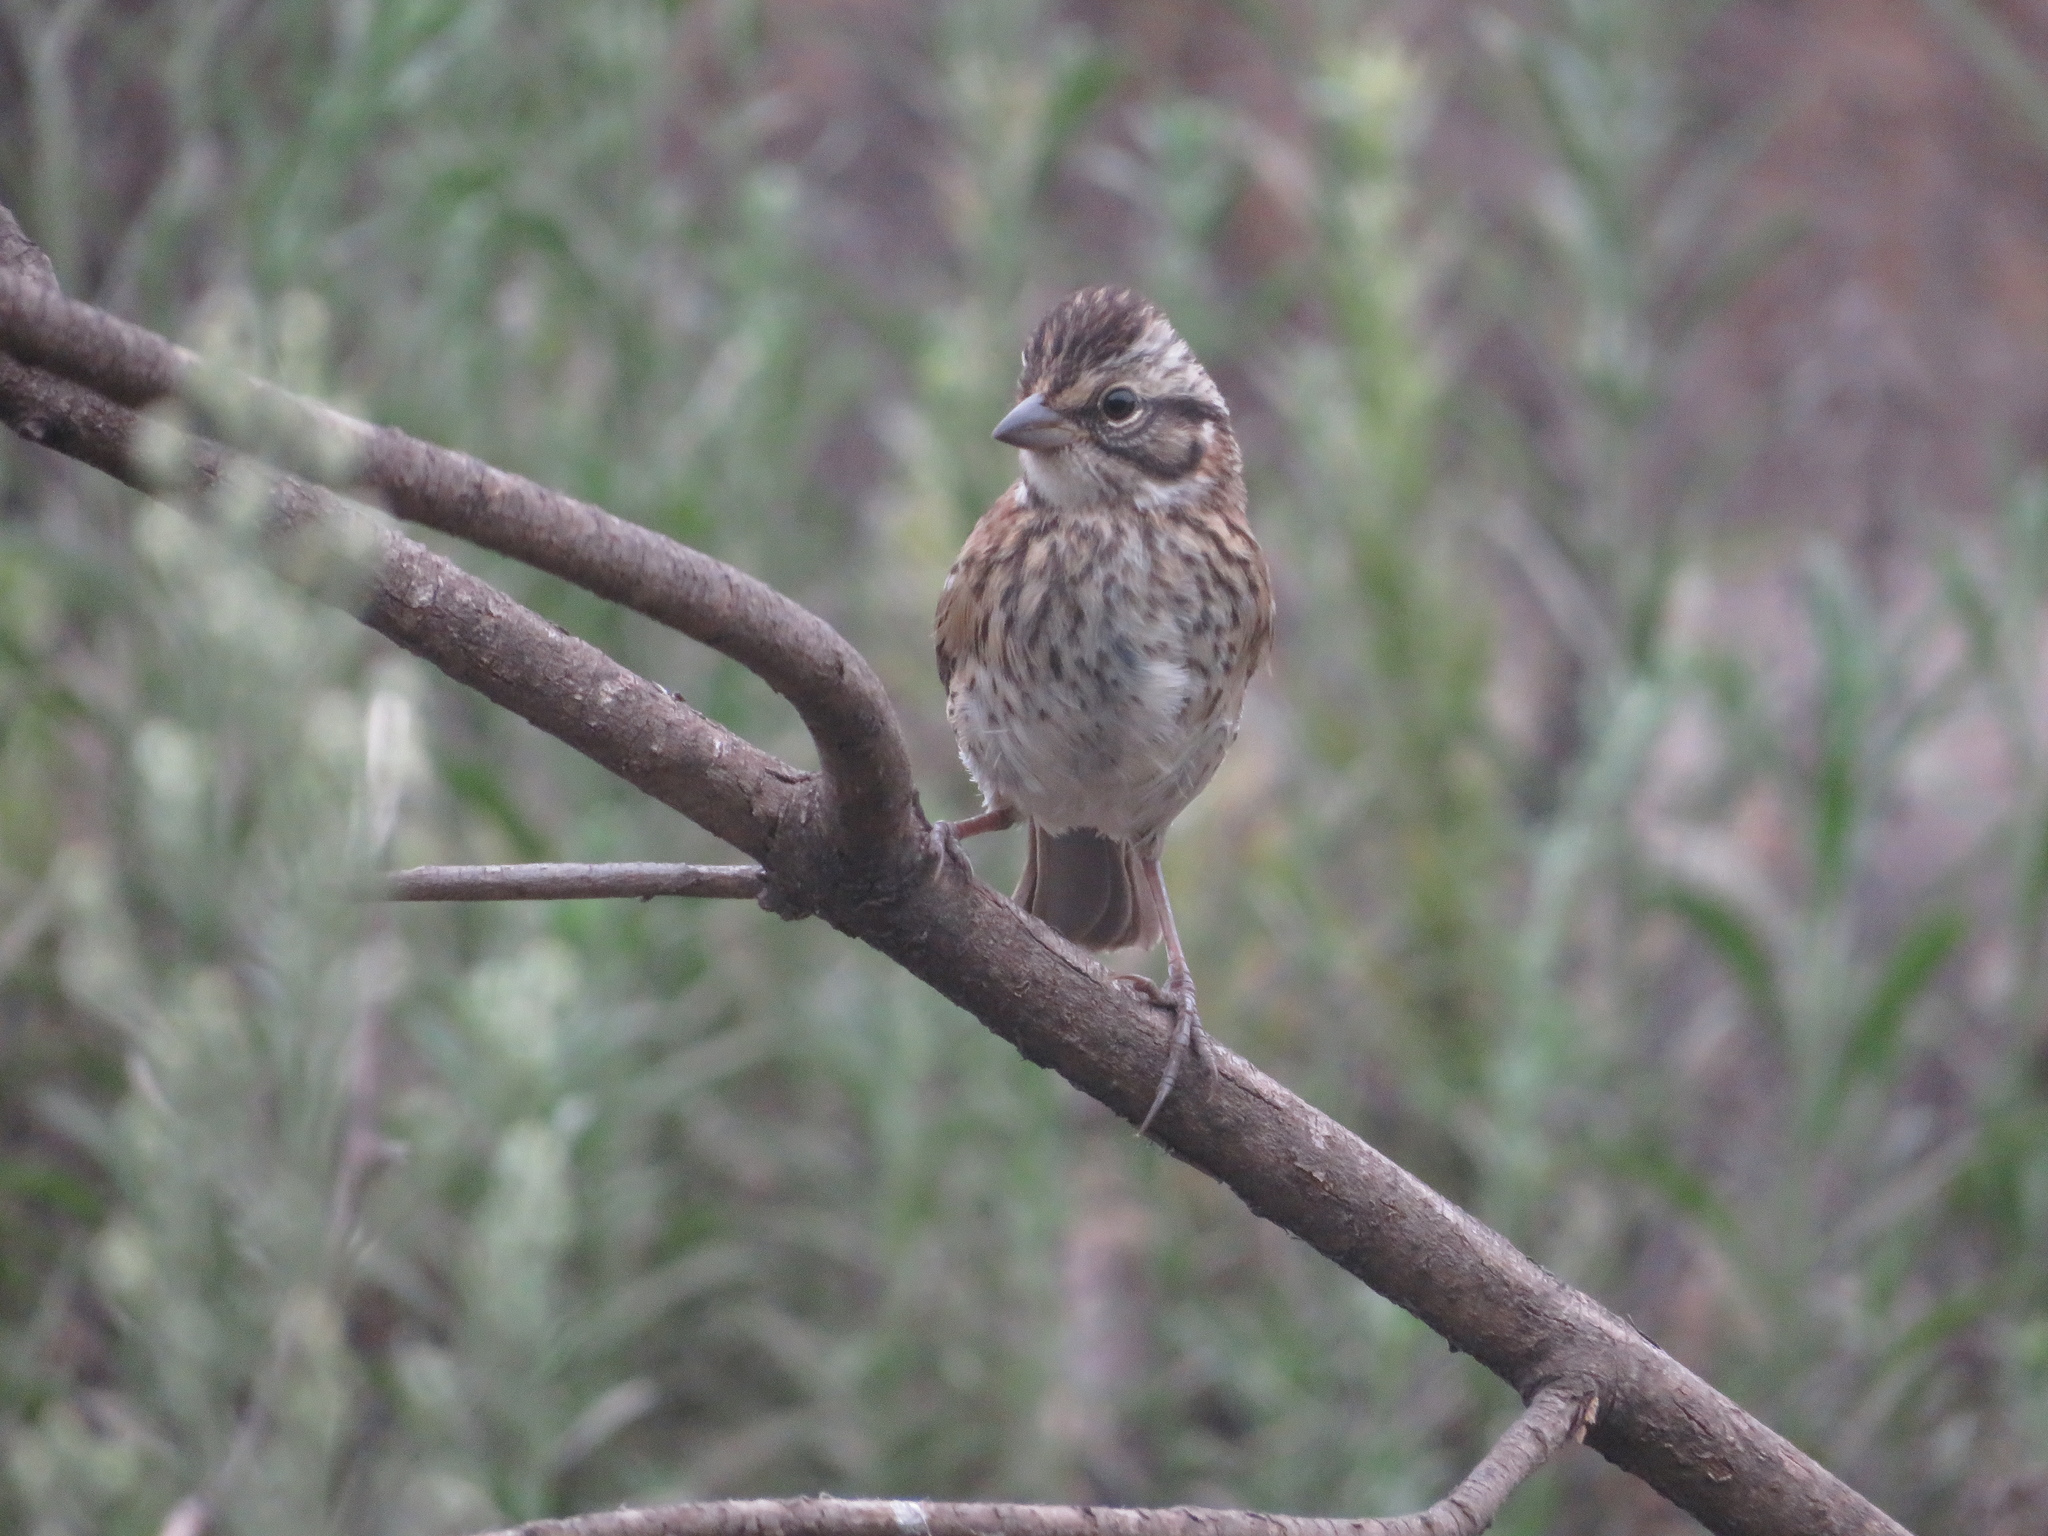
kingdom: Animalia
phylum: Chordata
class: Aves
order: Passeriformes
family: Passerellidae
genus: Zonotrichia
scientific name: Zonotrichia capensis
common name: Rufous-collared sparrow
